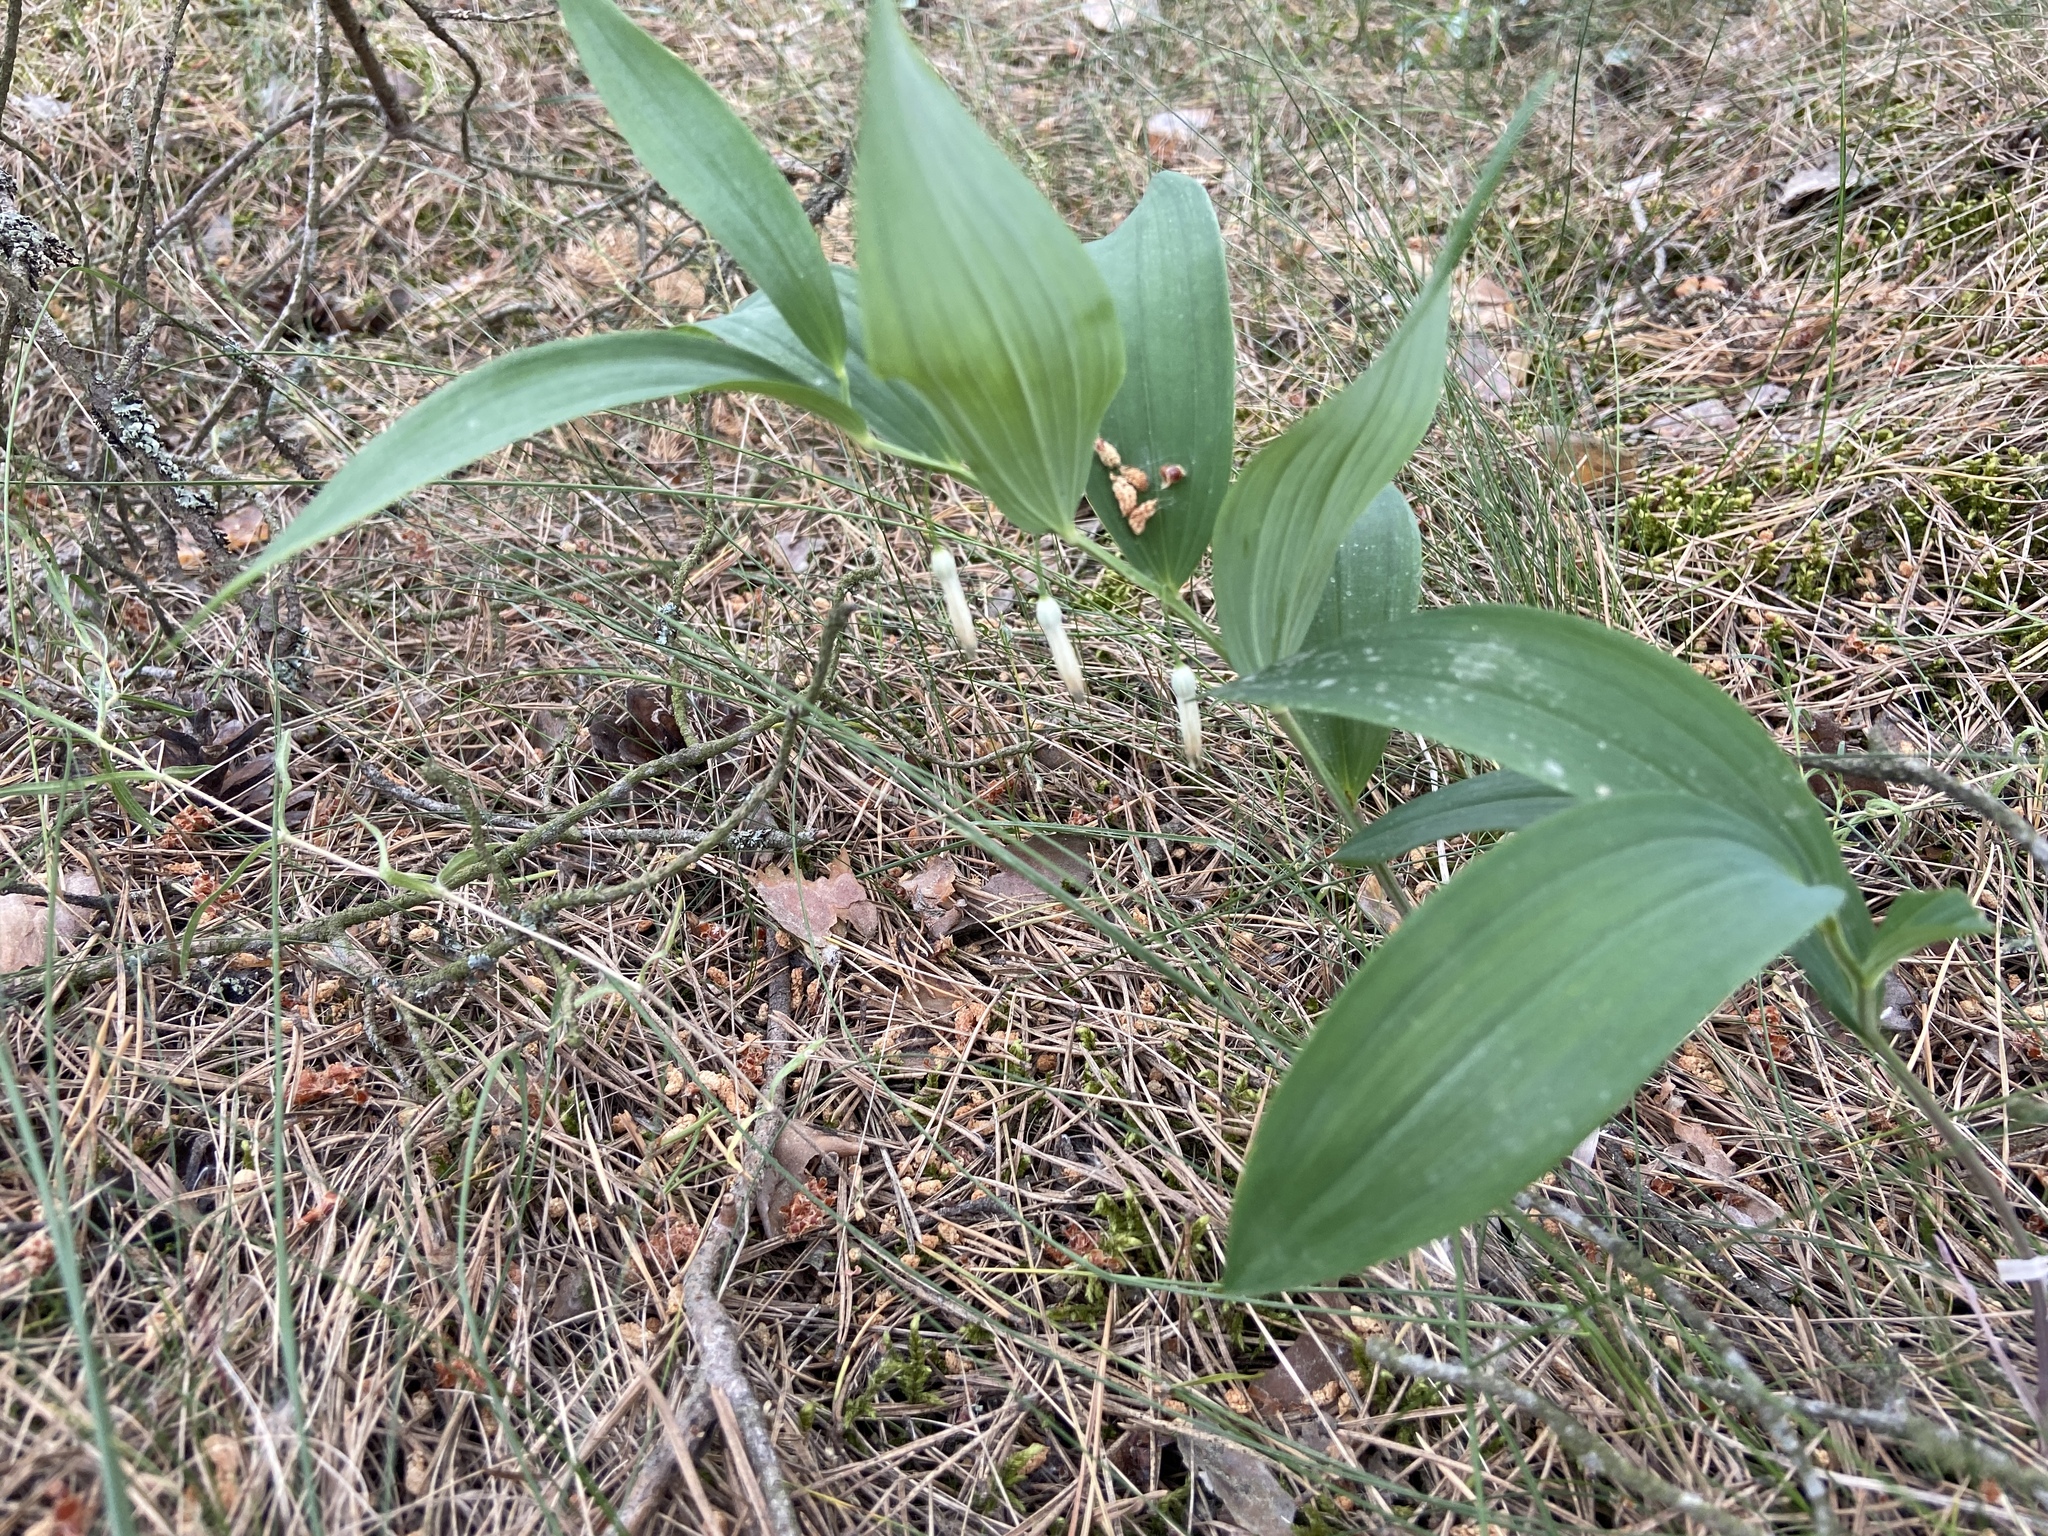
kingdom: Plantae
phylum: Tracheophyta
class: Liliopsida
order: Asparagales
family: Asparagaceae
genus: Polygonatum
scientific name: Polygonatum odoratum
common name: Angular solomon's-seal
